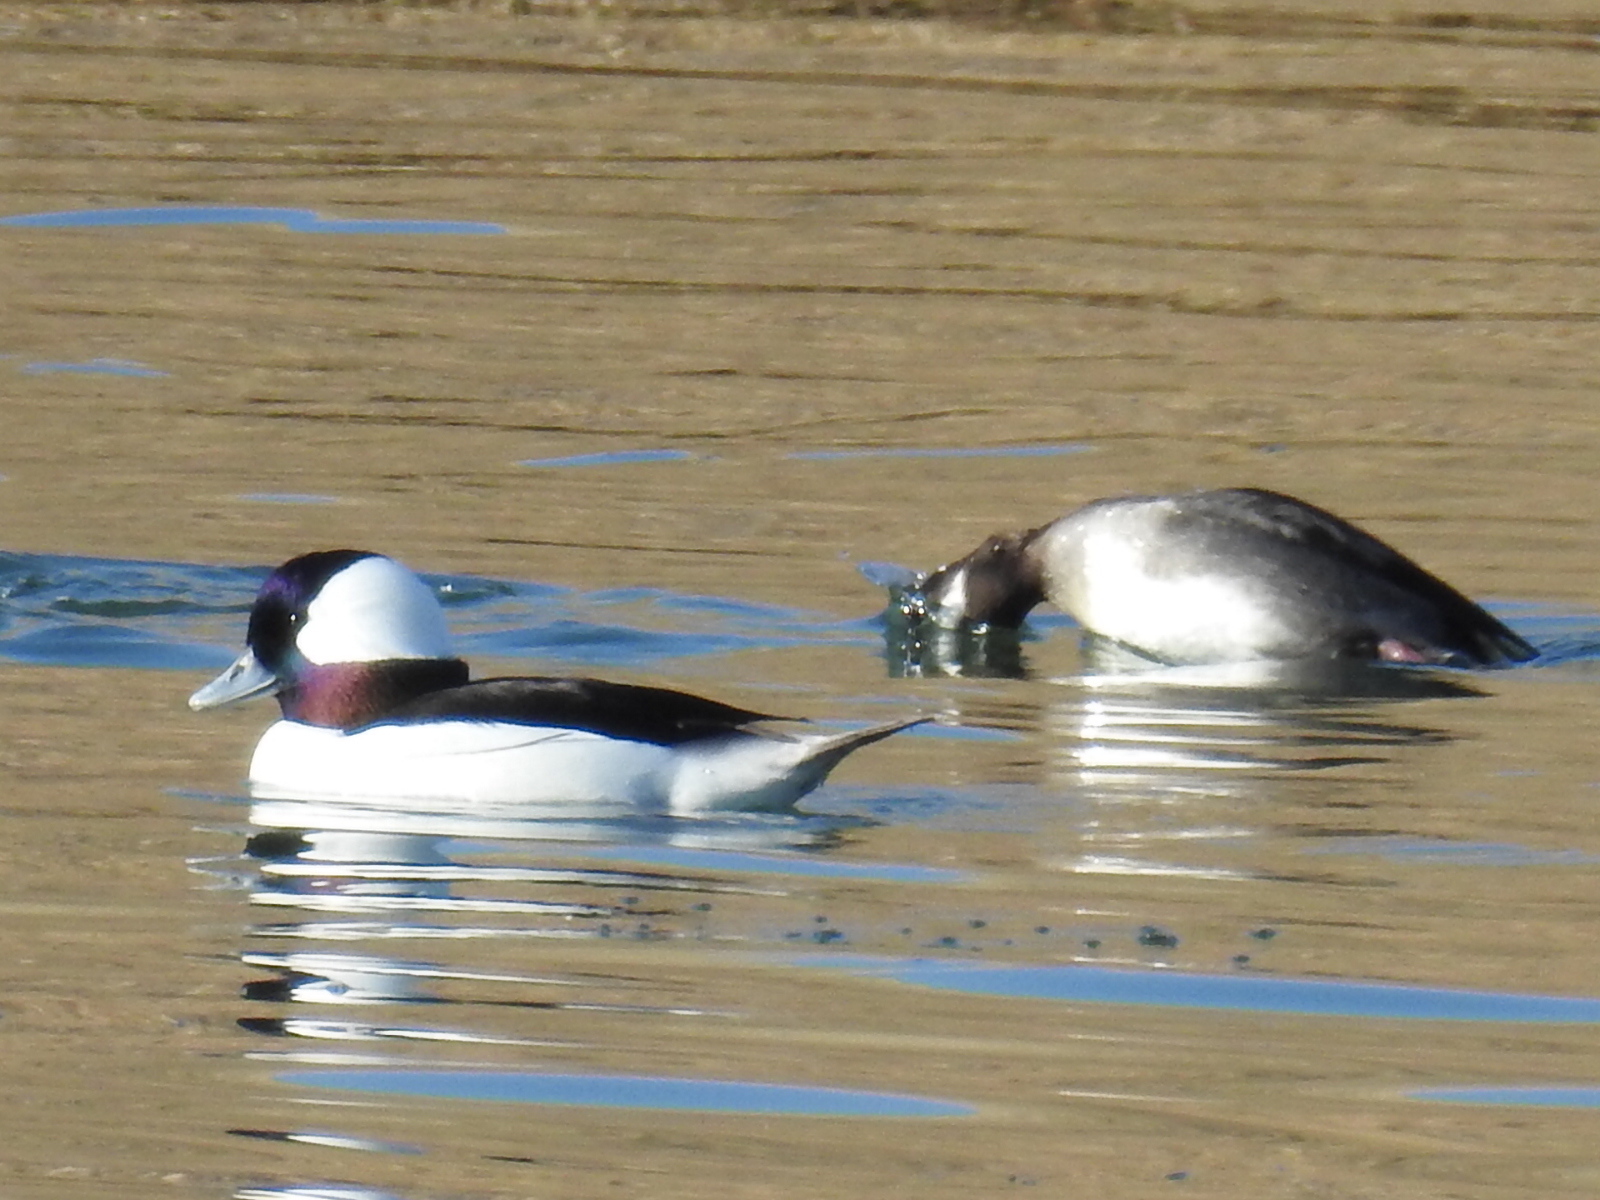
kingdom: Animalia
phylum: Chordata
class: Aves
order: Anseriformes
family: Anatidae
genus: Bucephala
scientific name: Bucephala albeola
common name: Bufflehead
